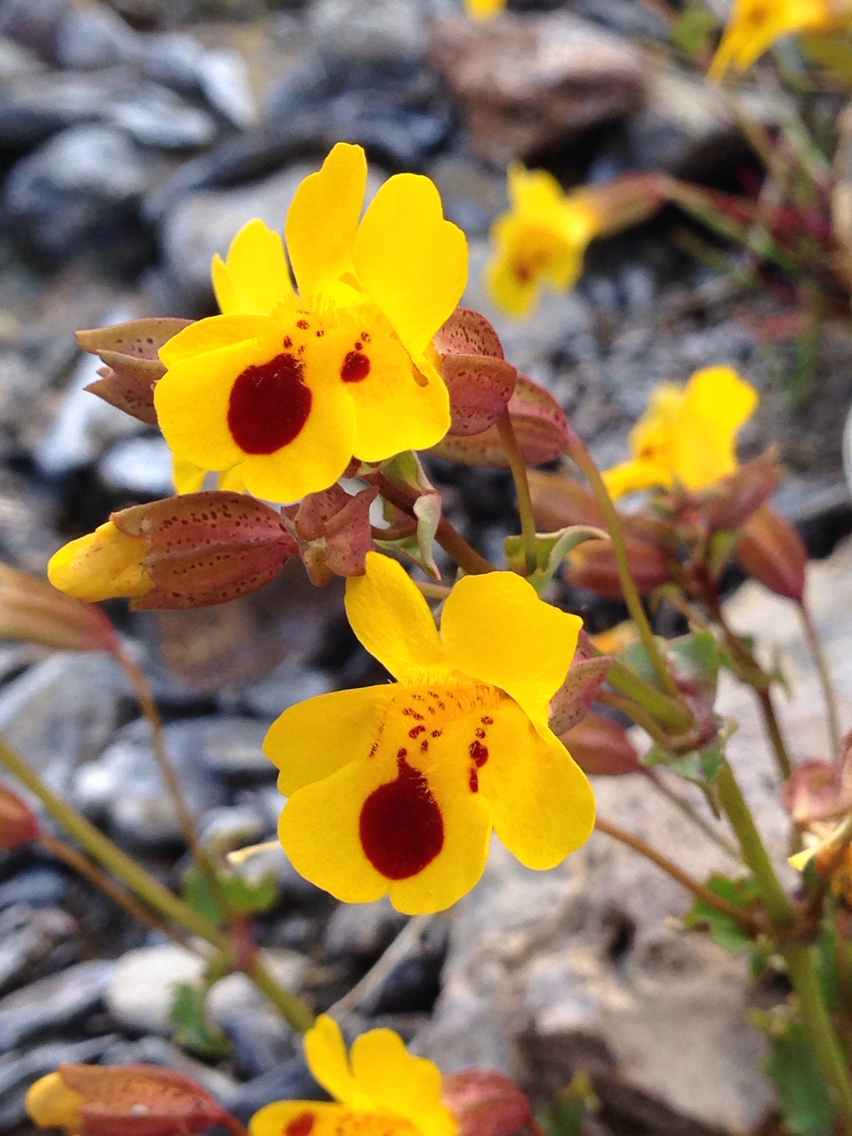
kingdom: Plantae
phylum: Tracheophyta
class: Magnoliopsida
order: Lamiales
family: Phrymaceae
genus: Erythranthe
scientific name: Erythranthe guttata
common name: Monkeyflower
